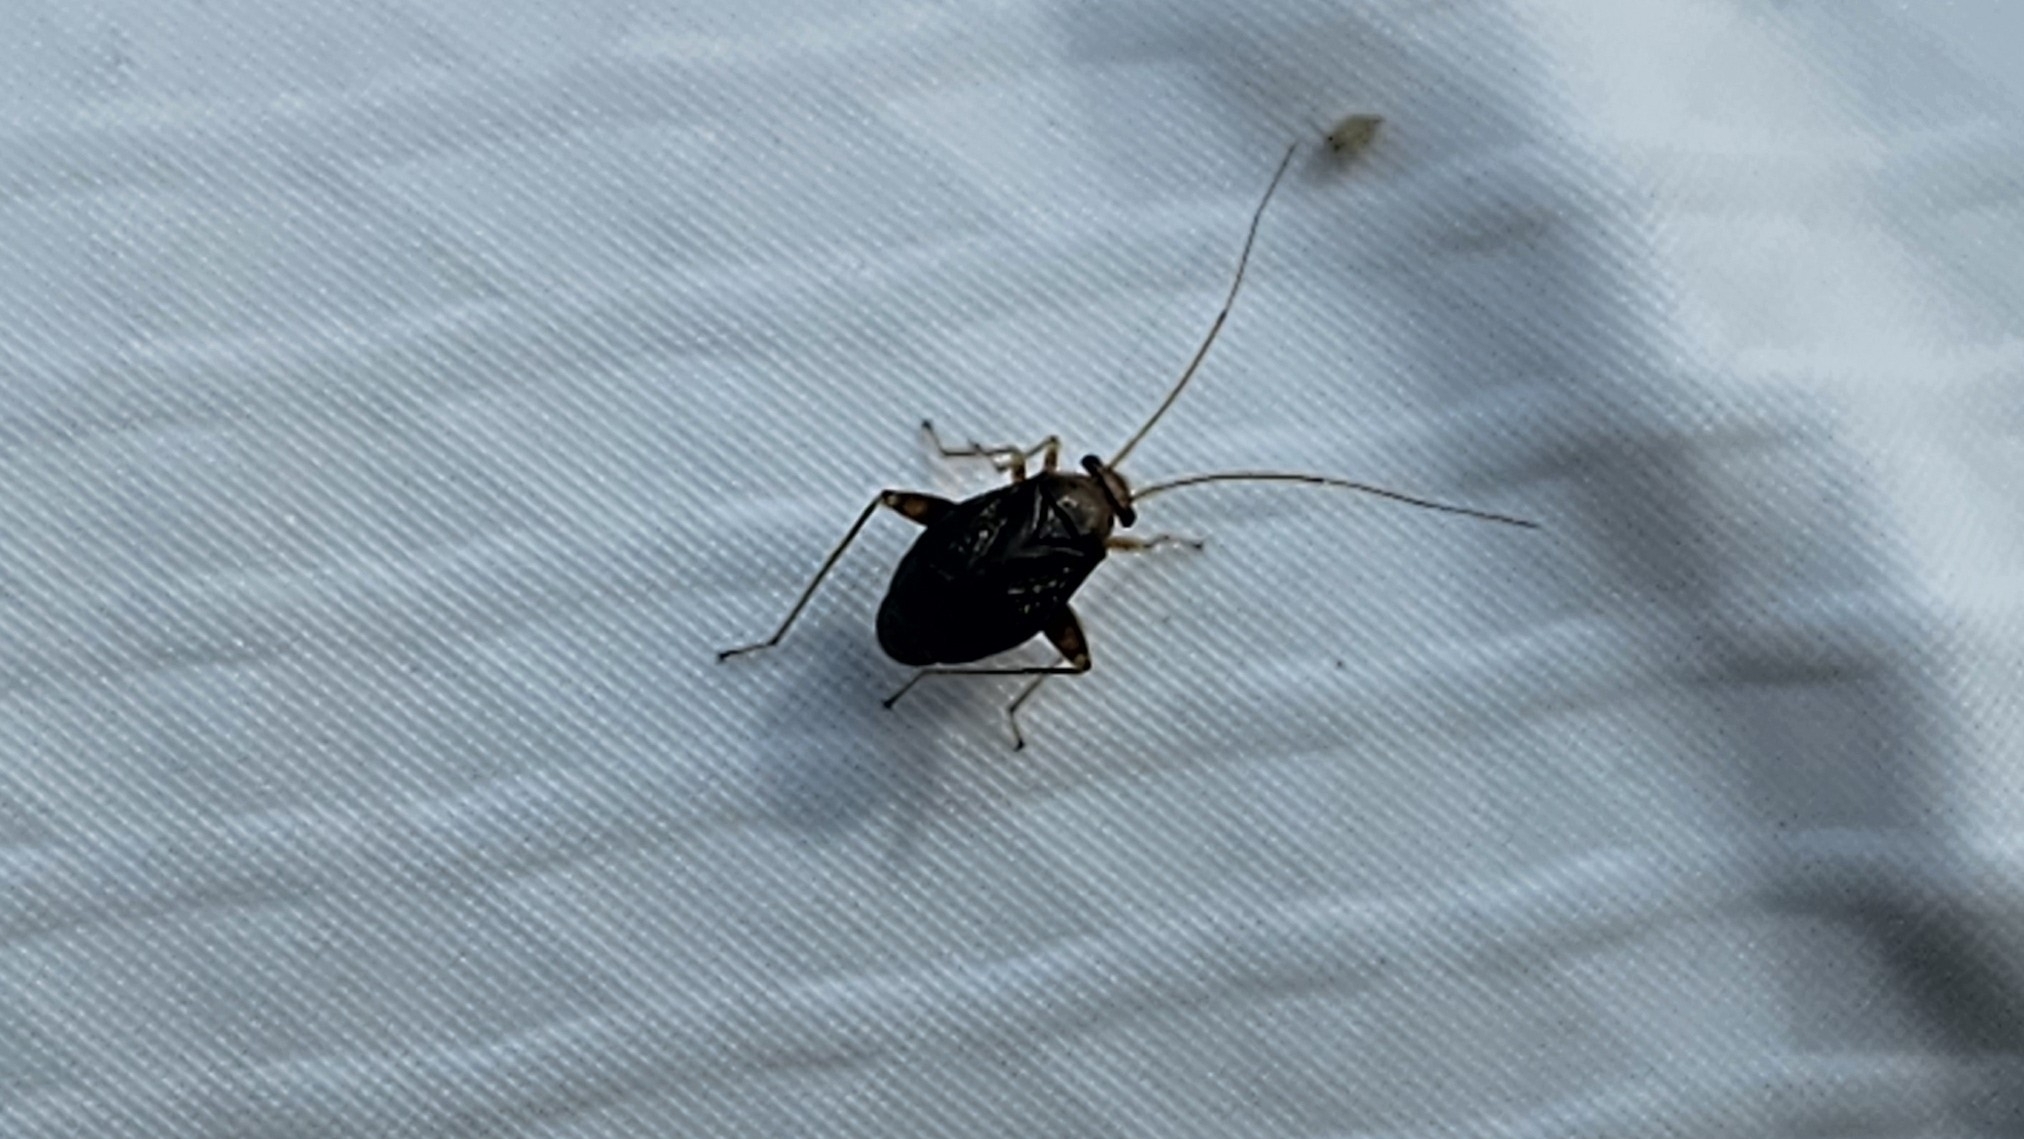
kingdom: Animalia
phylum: Arthropoda
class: Insecta
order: Hemiptera
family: Miridae
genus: Halticus
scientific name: Halticus luteicollis
